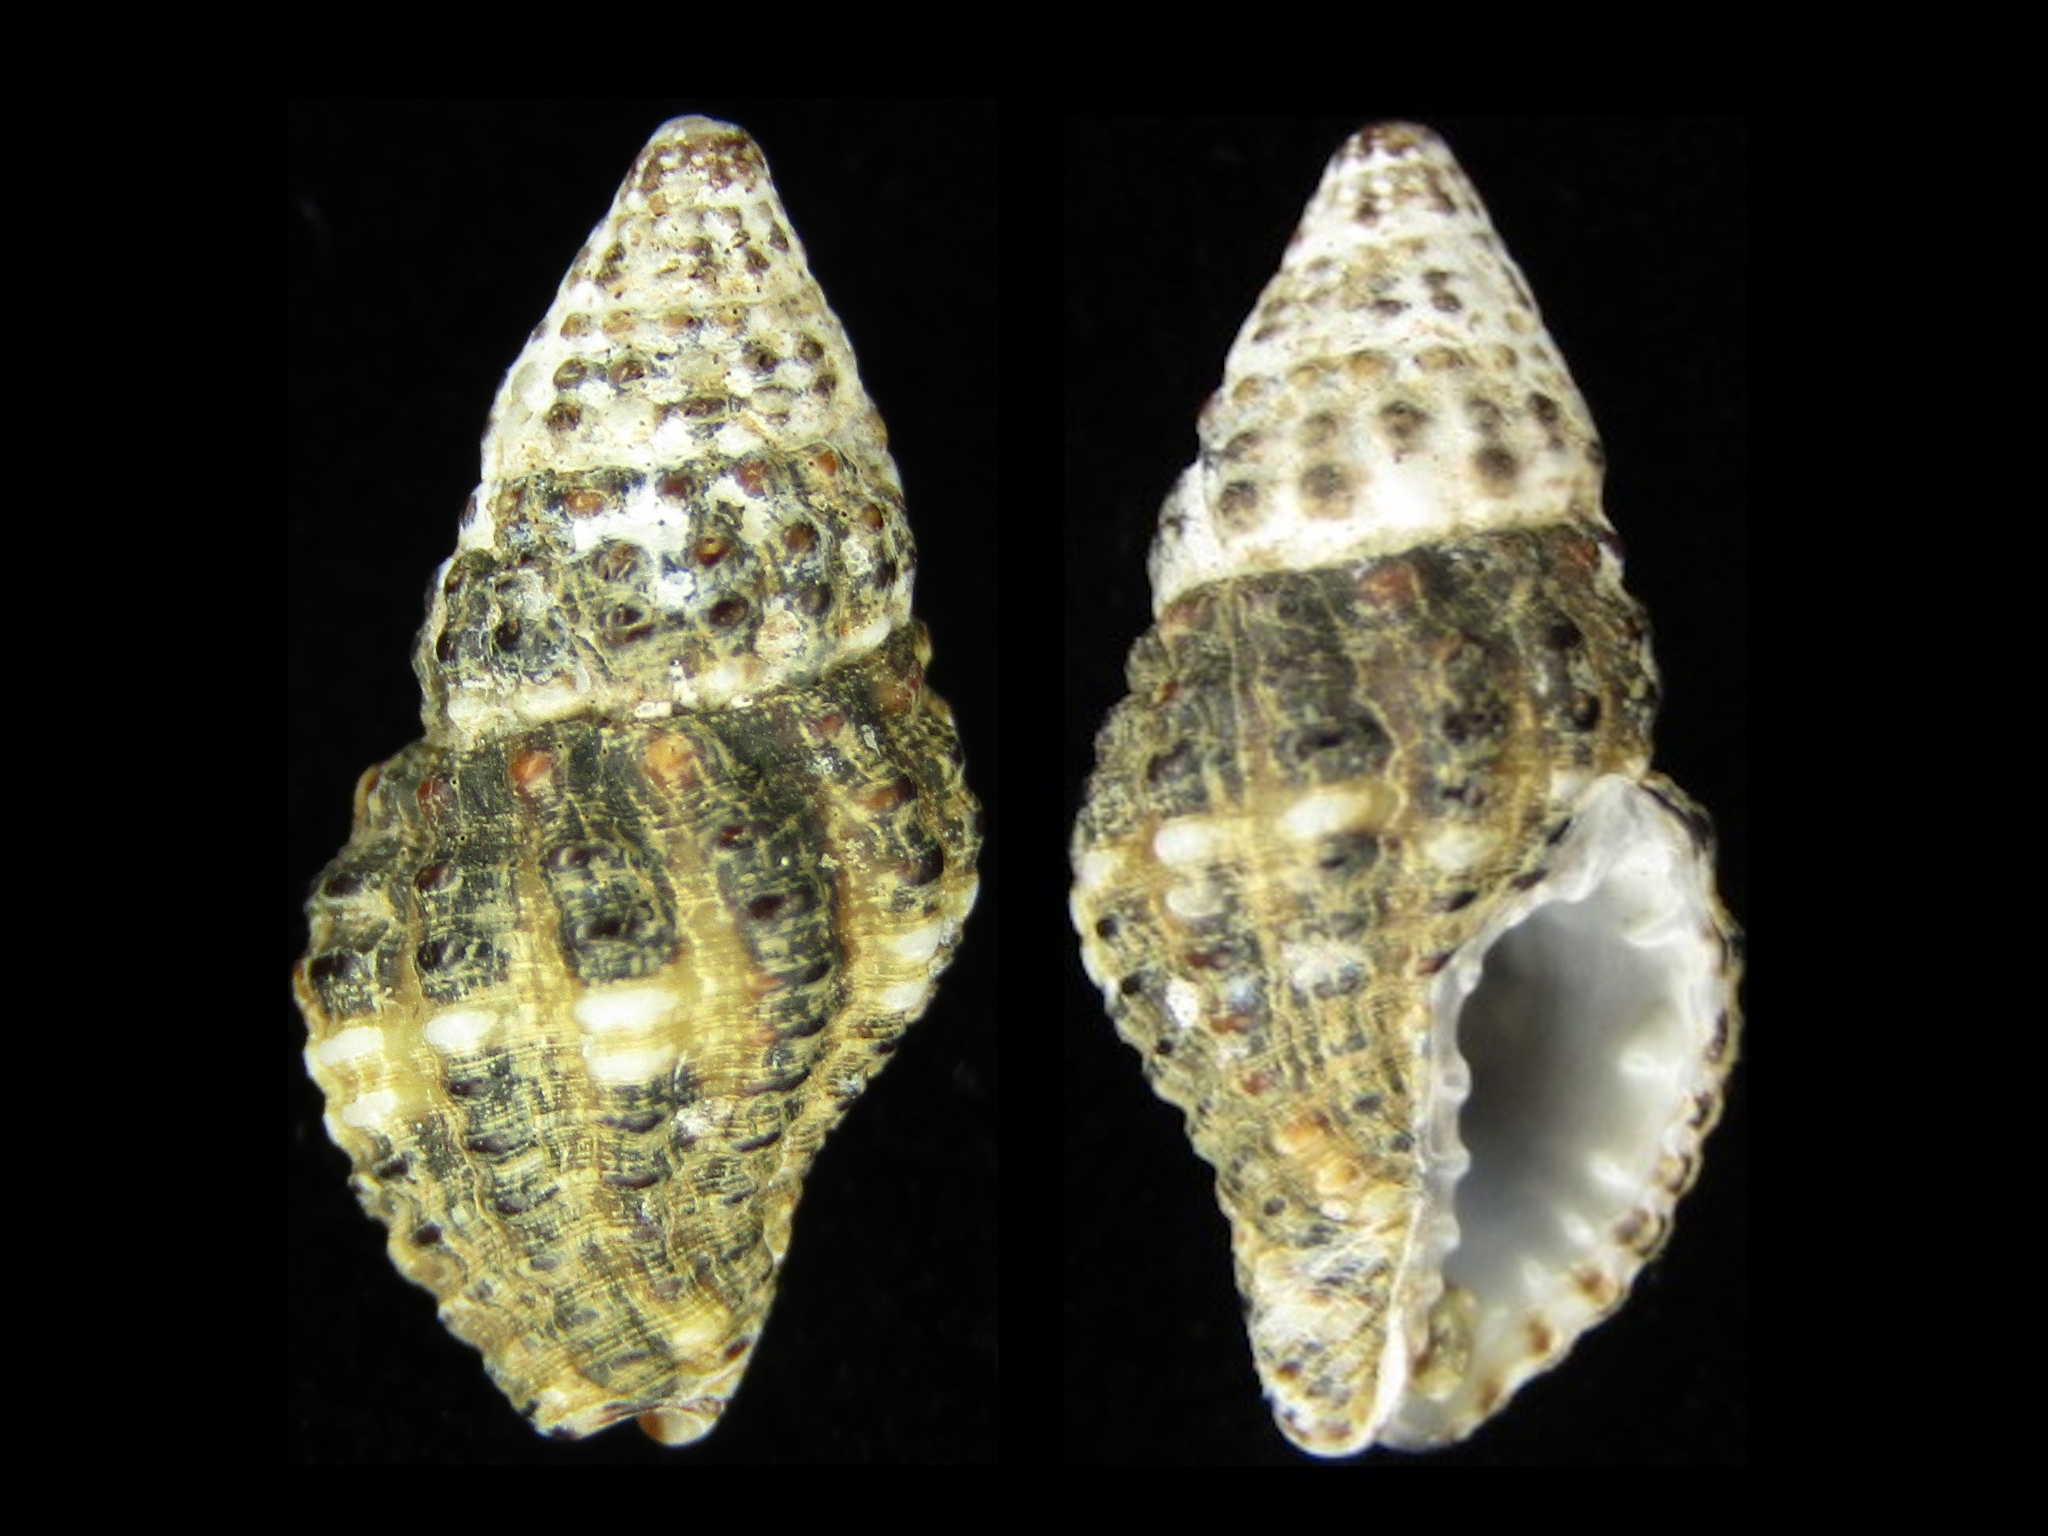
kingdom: Animalia
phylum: Mollusca
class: Gastropoda
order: Neogastropoda
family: Pisaniidae
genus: Engina
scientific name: Engina menkeana
